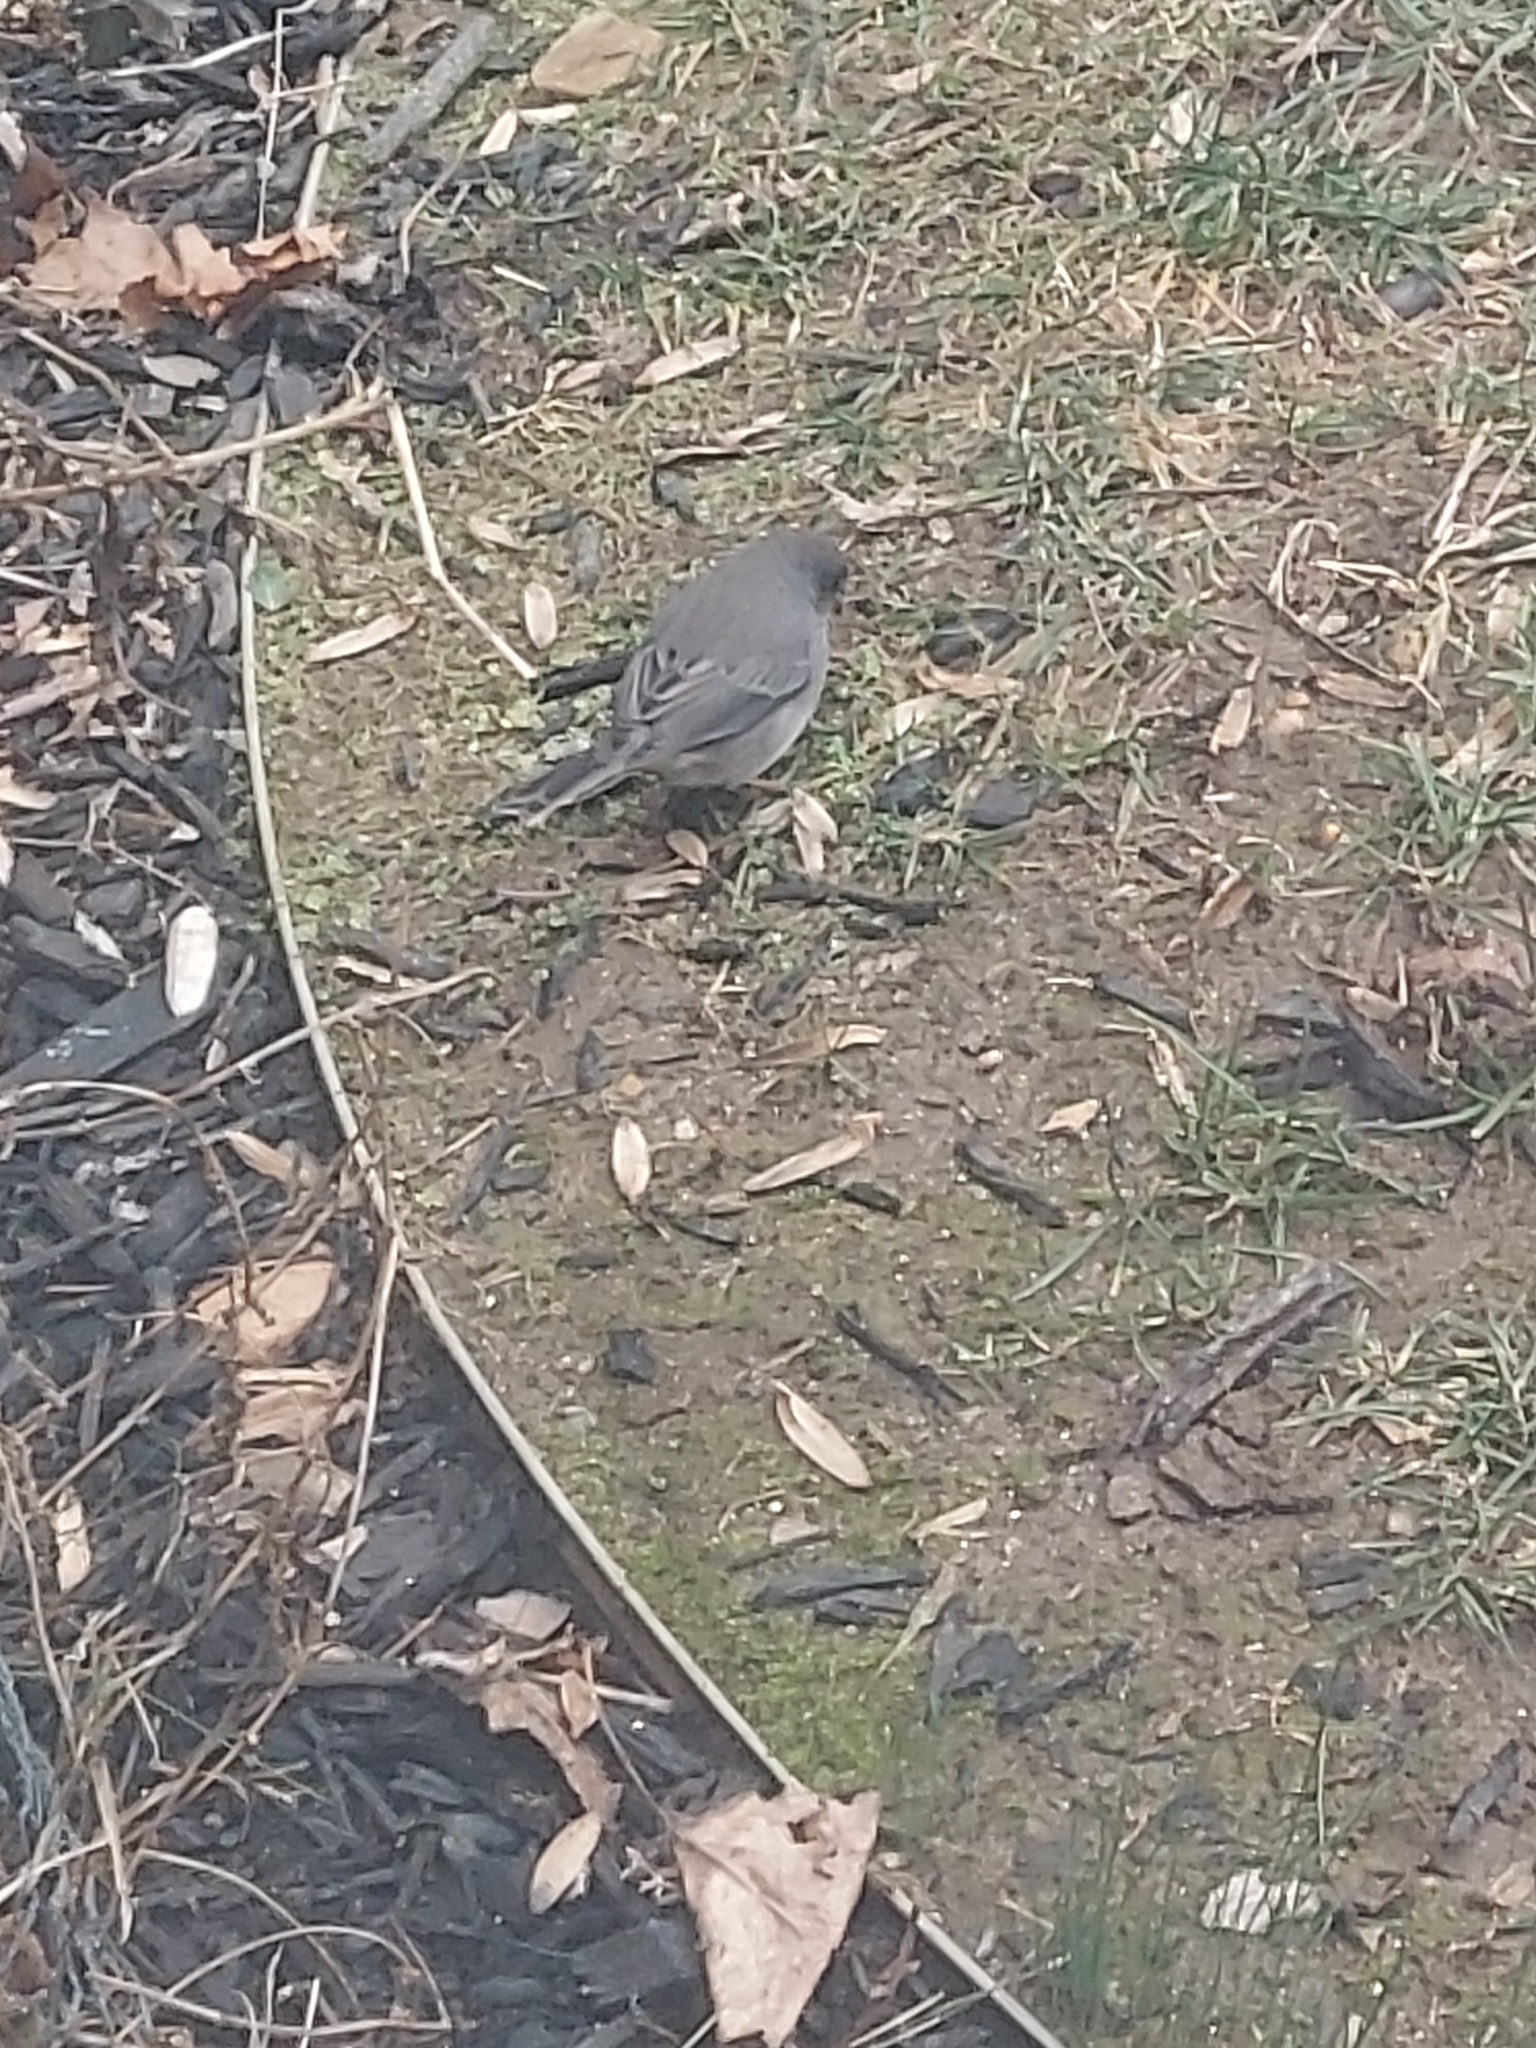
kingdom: Animalia
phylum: Chordata
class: Aves
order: Passeriformes
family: Passerellidae
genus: Junco
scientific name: Junco hyemalis
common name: Dark-eyed junco
